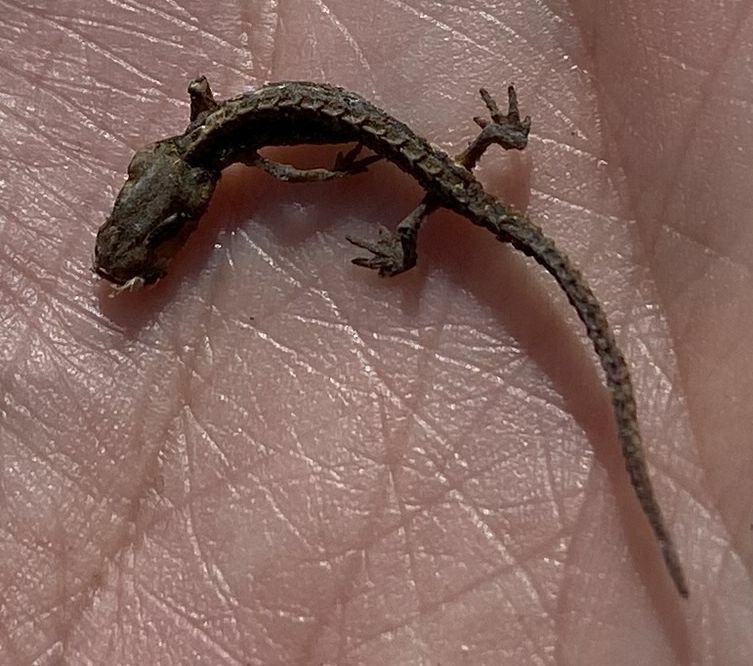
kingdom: Animalia
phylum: Chordata
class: Amphibia
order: Caudata
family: Salamandridae
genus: Lissotriton
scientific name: Lissotriton vulgaris
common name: Smooth newt
